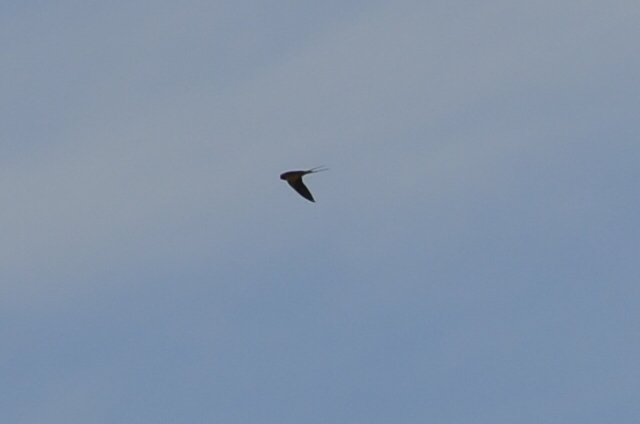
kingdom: Animalia
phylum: Chordata
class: Aves
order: Passeriformes
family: Hirundinidae
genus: Hirundo
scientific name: Hirundo rustica
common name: Barn swallow
